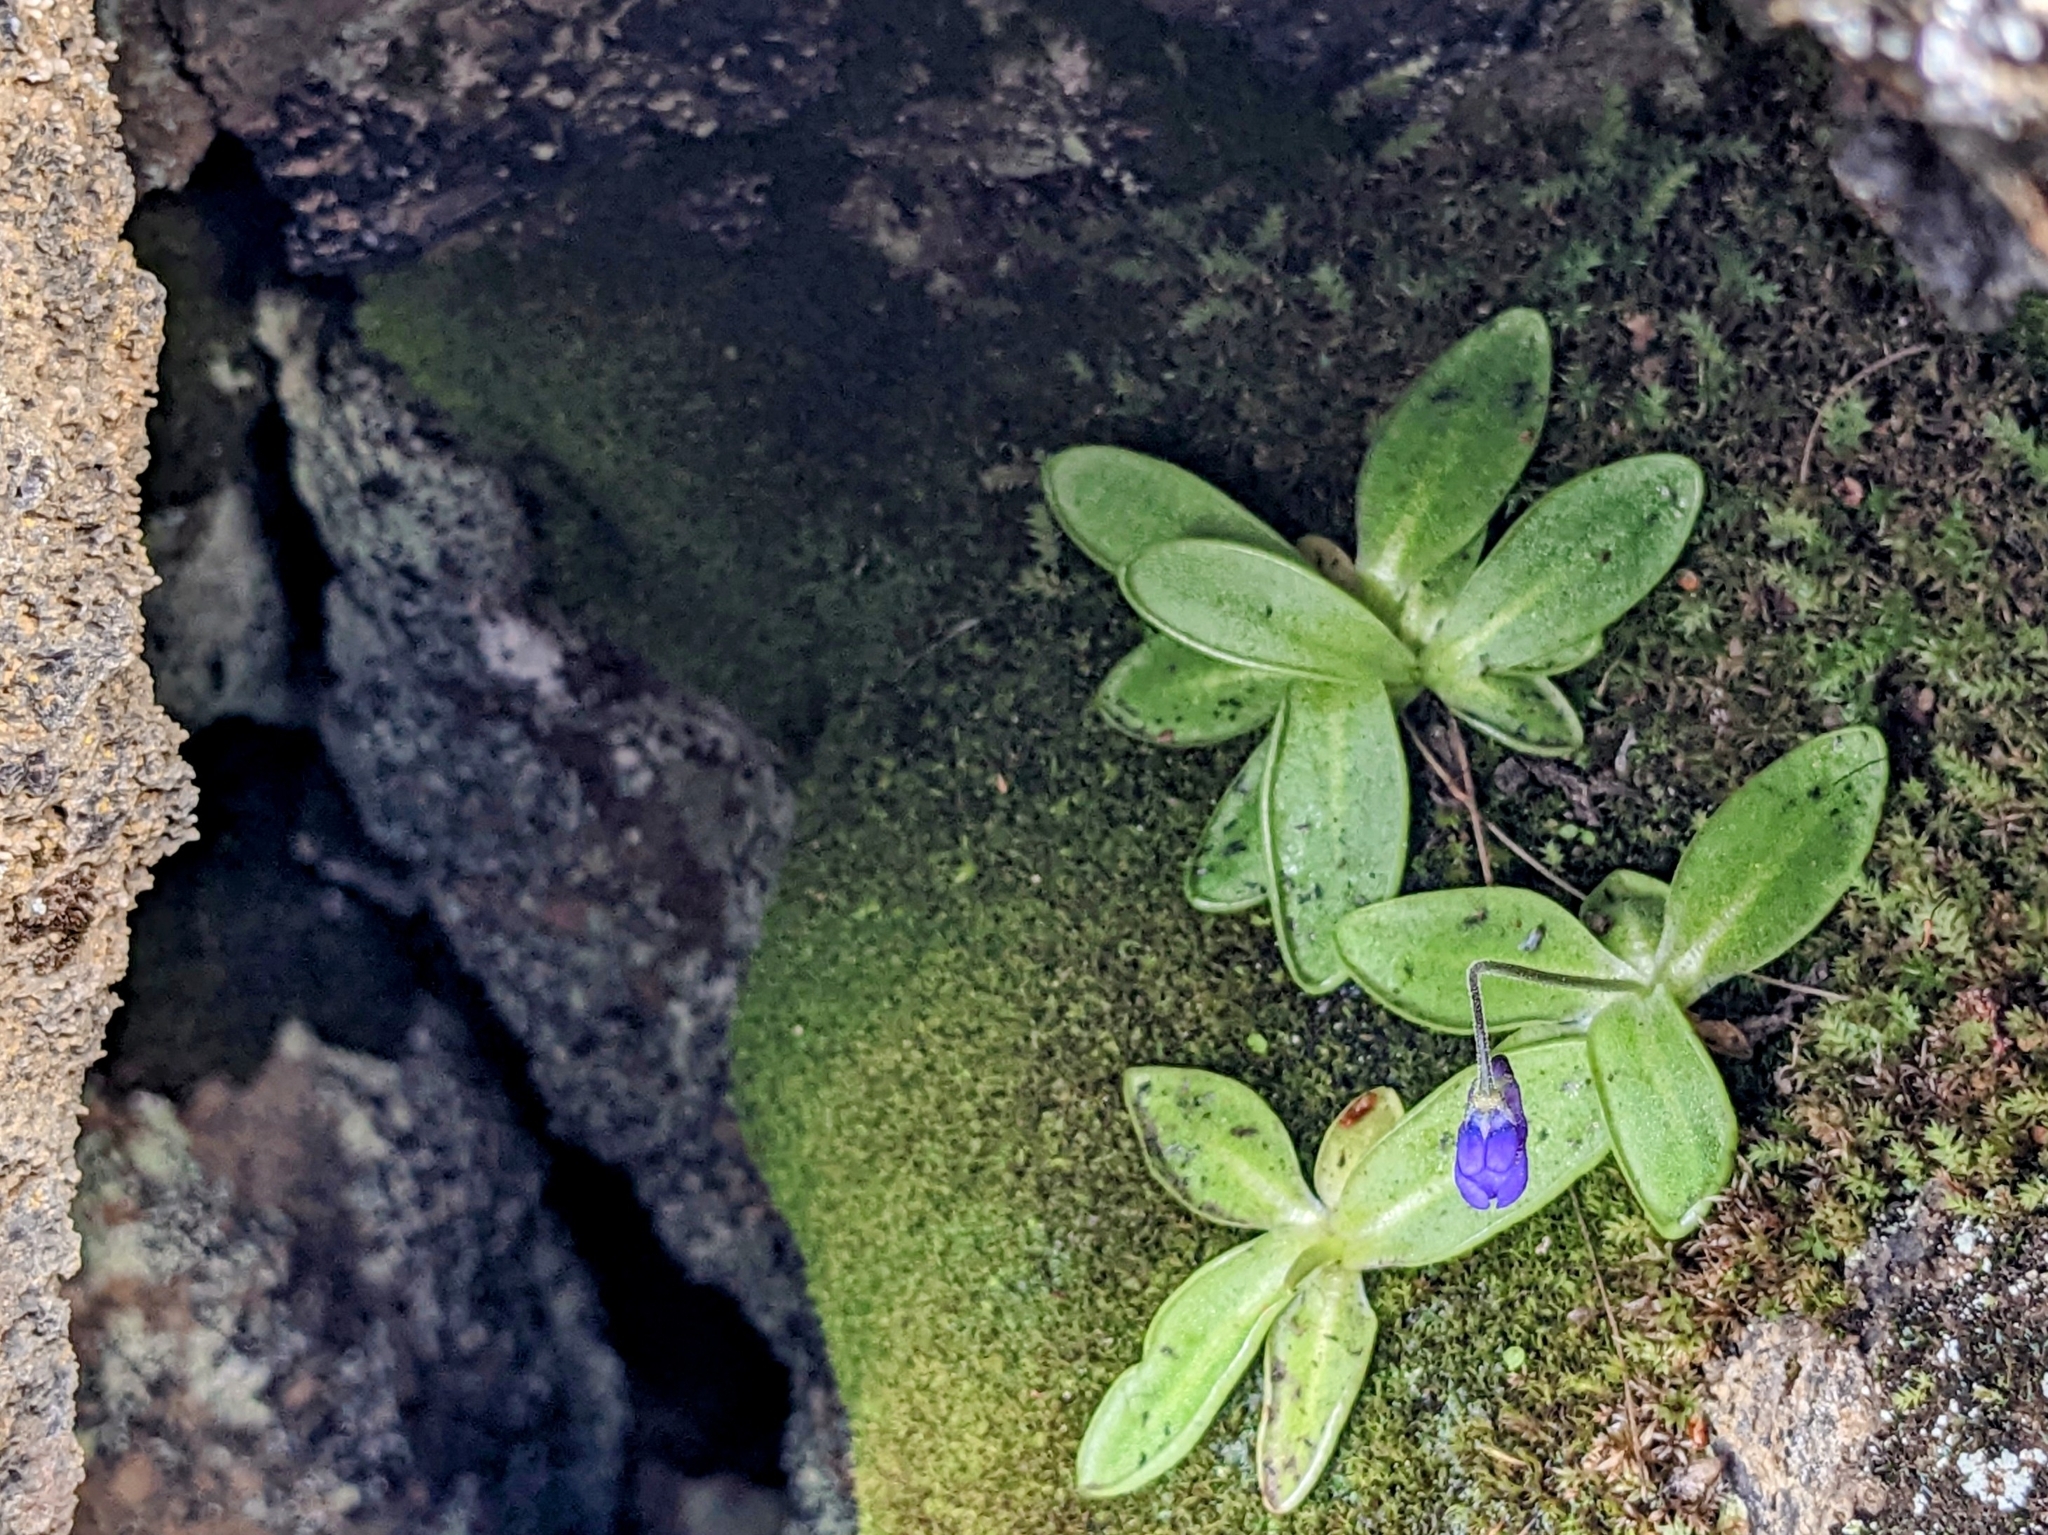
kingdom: Plantae
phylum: Tracheophyta
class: Magnoliopsida
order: Lamiales
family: Lentibulariaceae
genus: Pinguicula
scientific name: Pinguicula vulgaris
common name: Common butterwort
